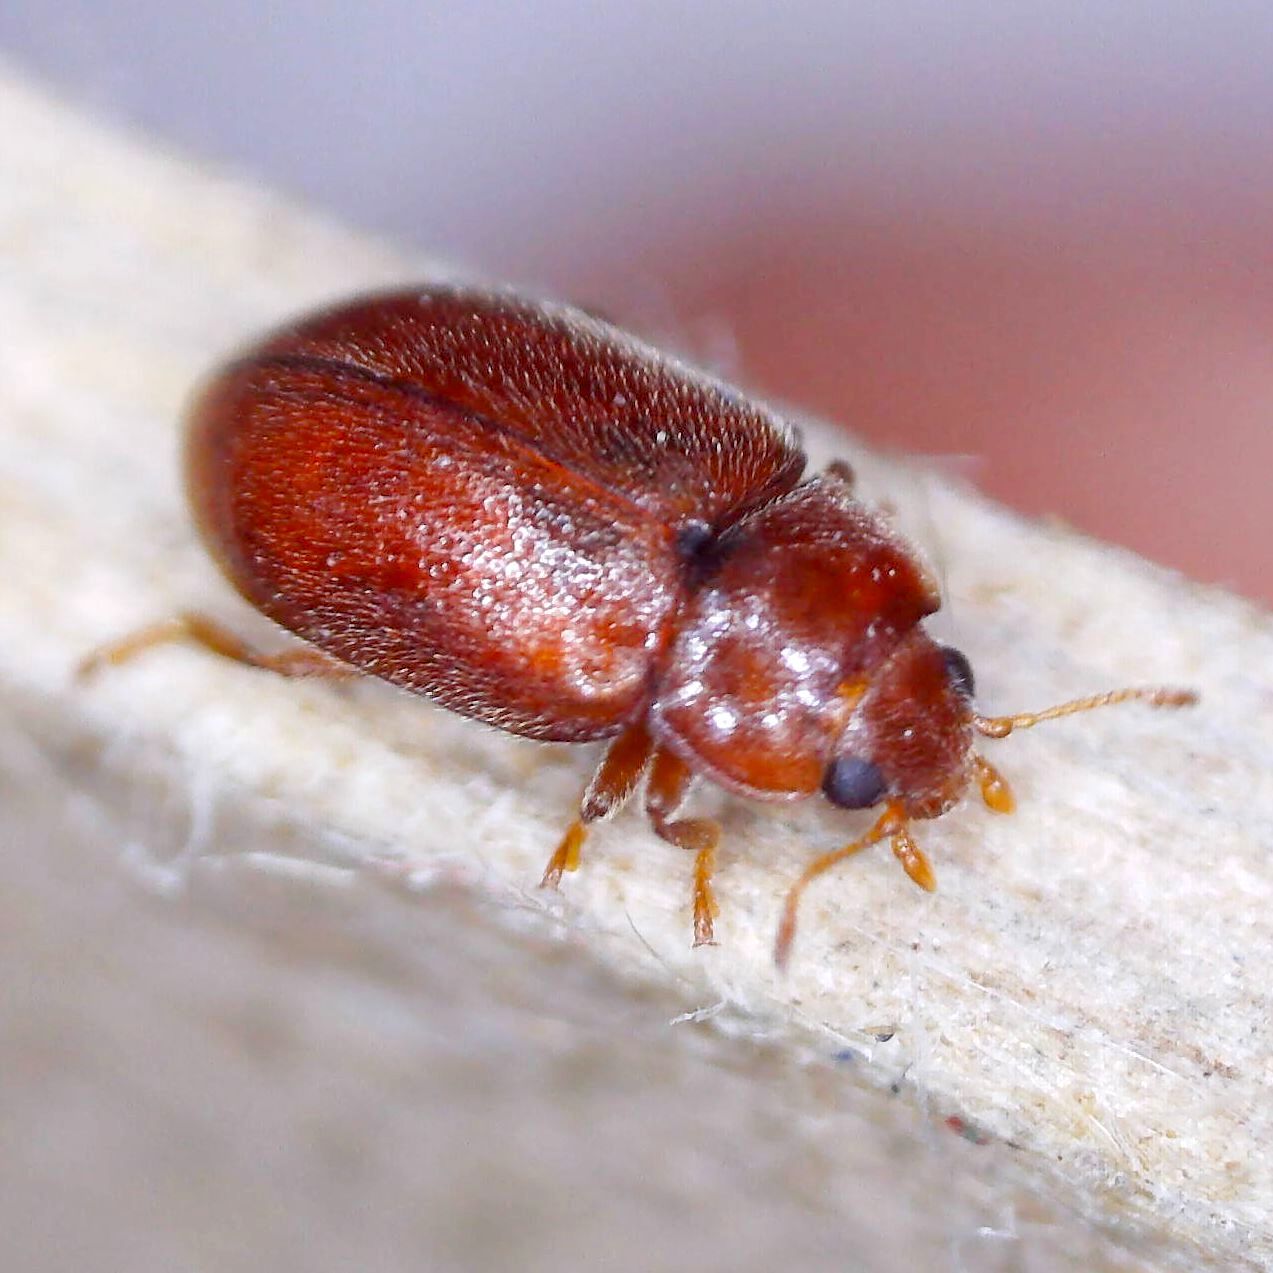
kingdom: Animalia
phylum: Arthropoda
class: Insecta
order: Coleoptera
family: Coccinellidae
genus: Coccidula
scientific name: Coccidula rufa
